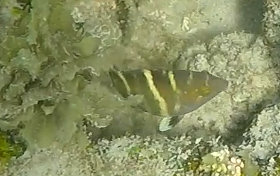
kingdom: Animalia
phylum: Chordata
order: Perciformes
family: Labridae
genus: Cheilinus
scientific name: Cheilinus fasciatus
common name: Red-breasted wrasse
